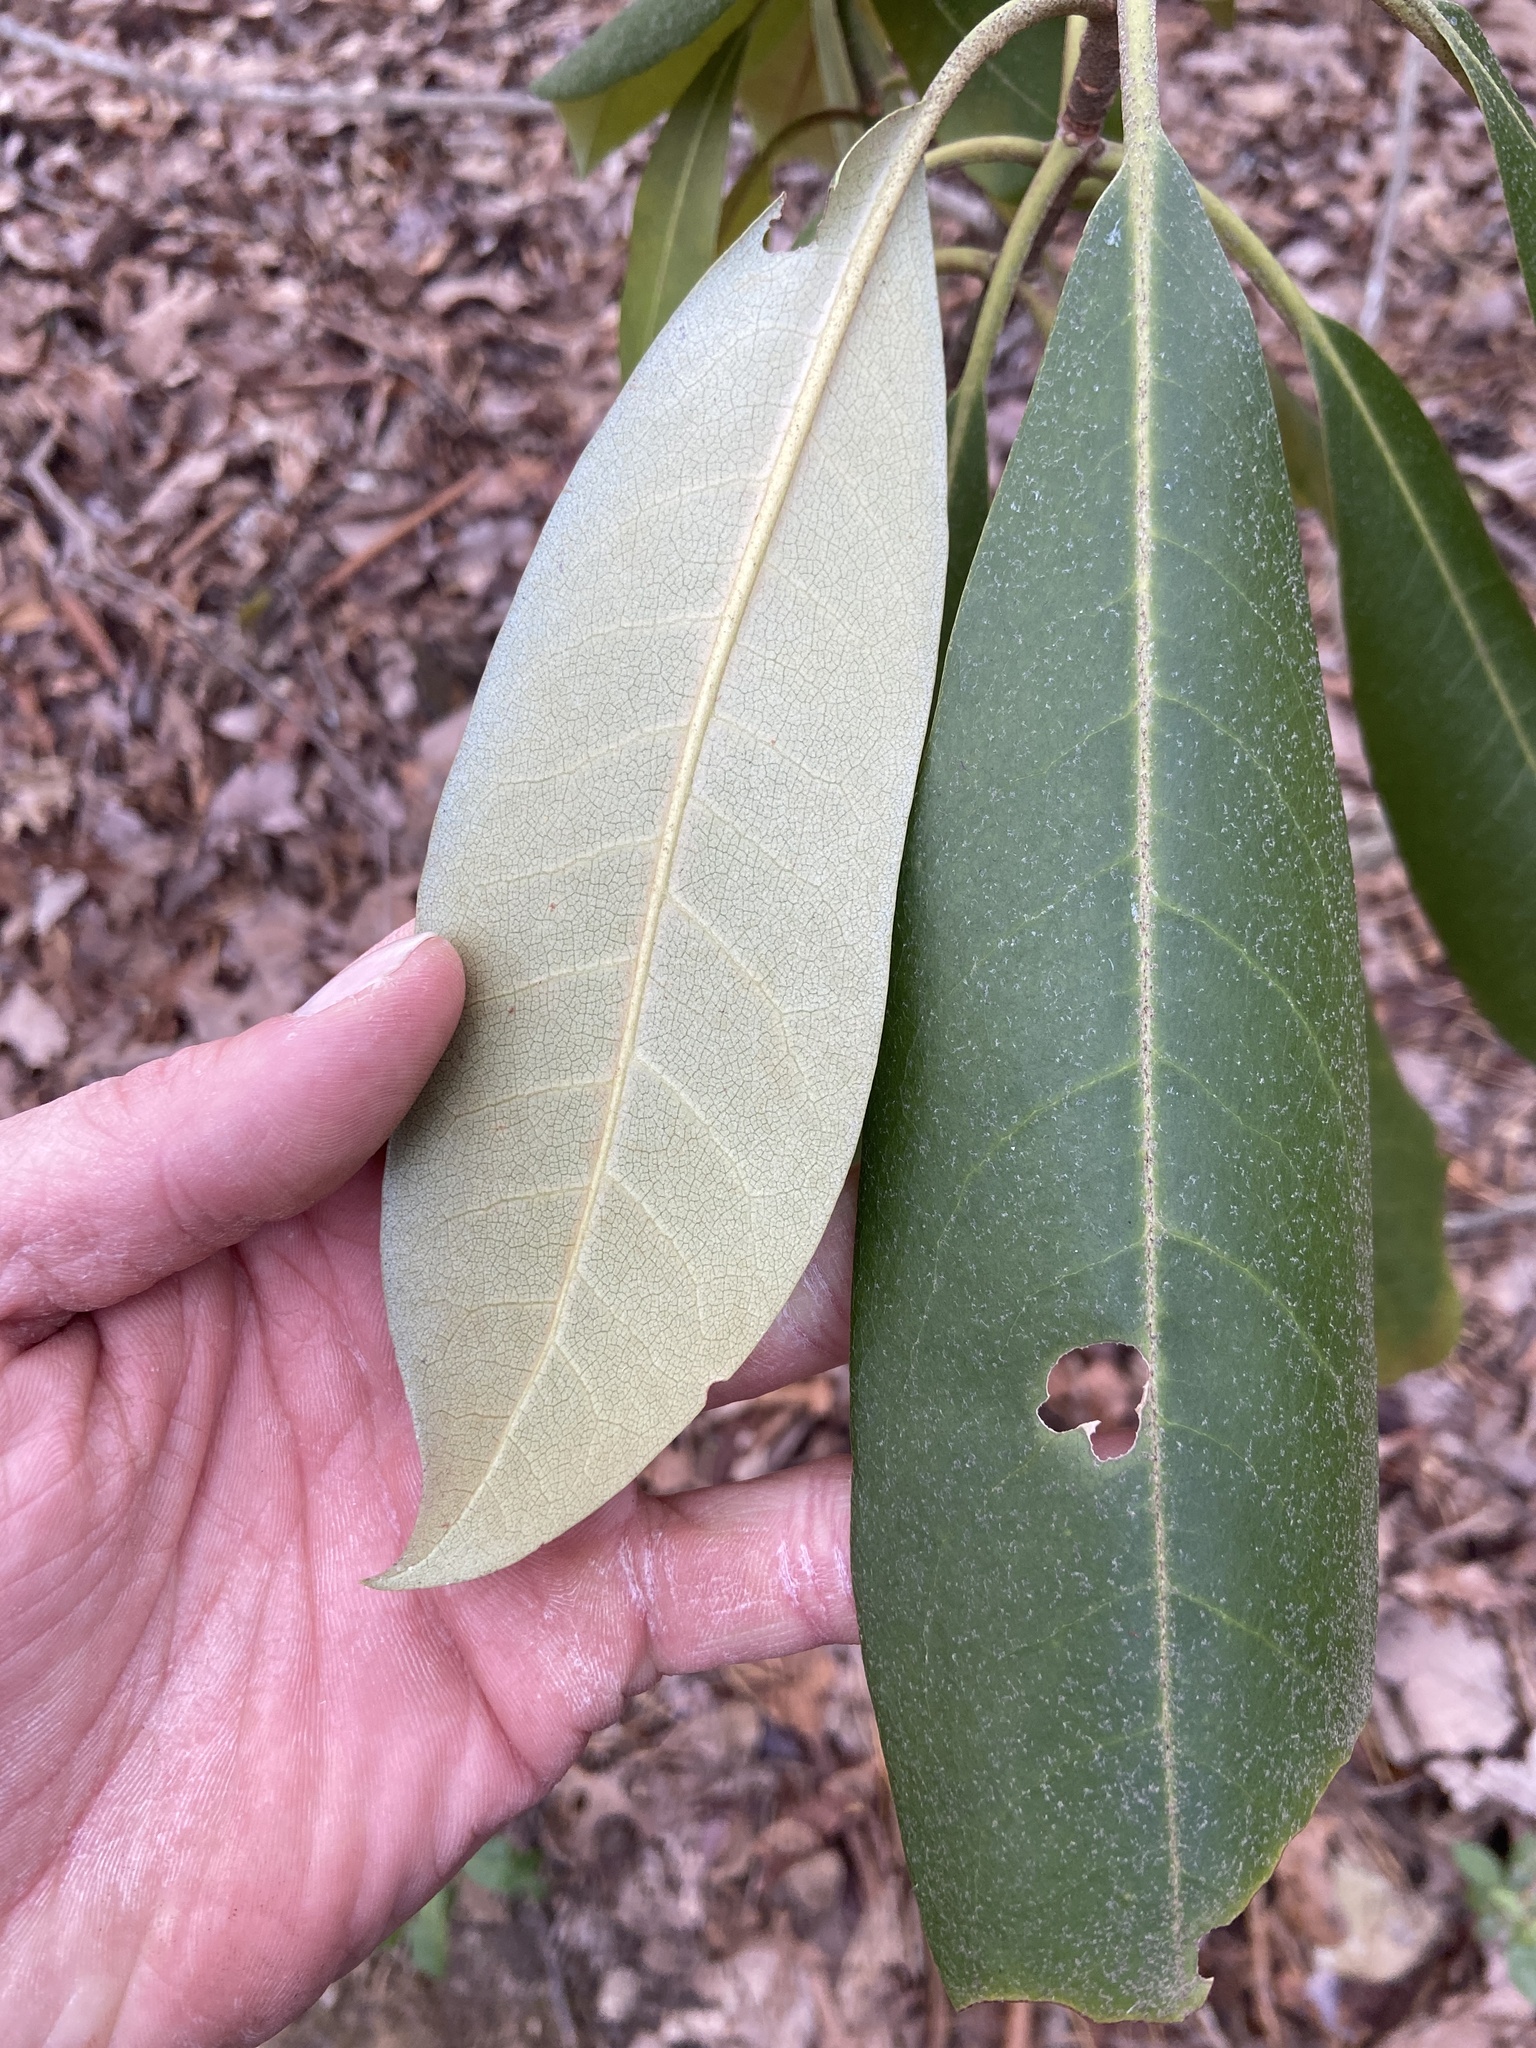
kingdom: Plantae
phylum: Tracheophyta
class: Magnoliopsida
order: Ericales
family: Ericaceae
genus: Rhododendron
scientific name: Rhododendron maximum
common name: Great rhododendron
